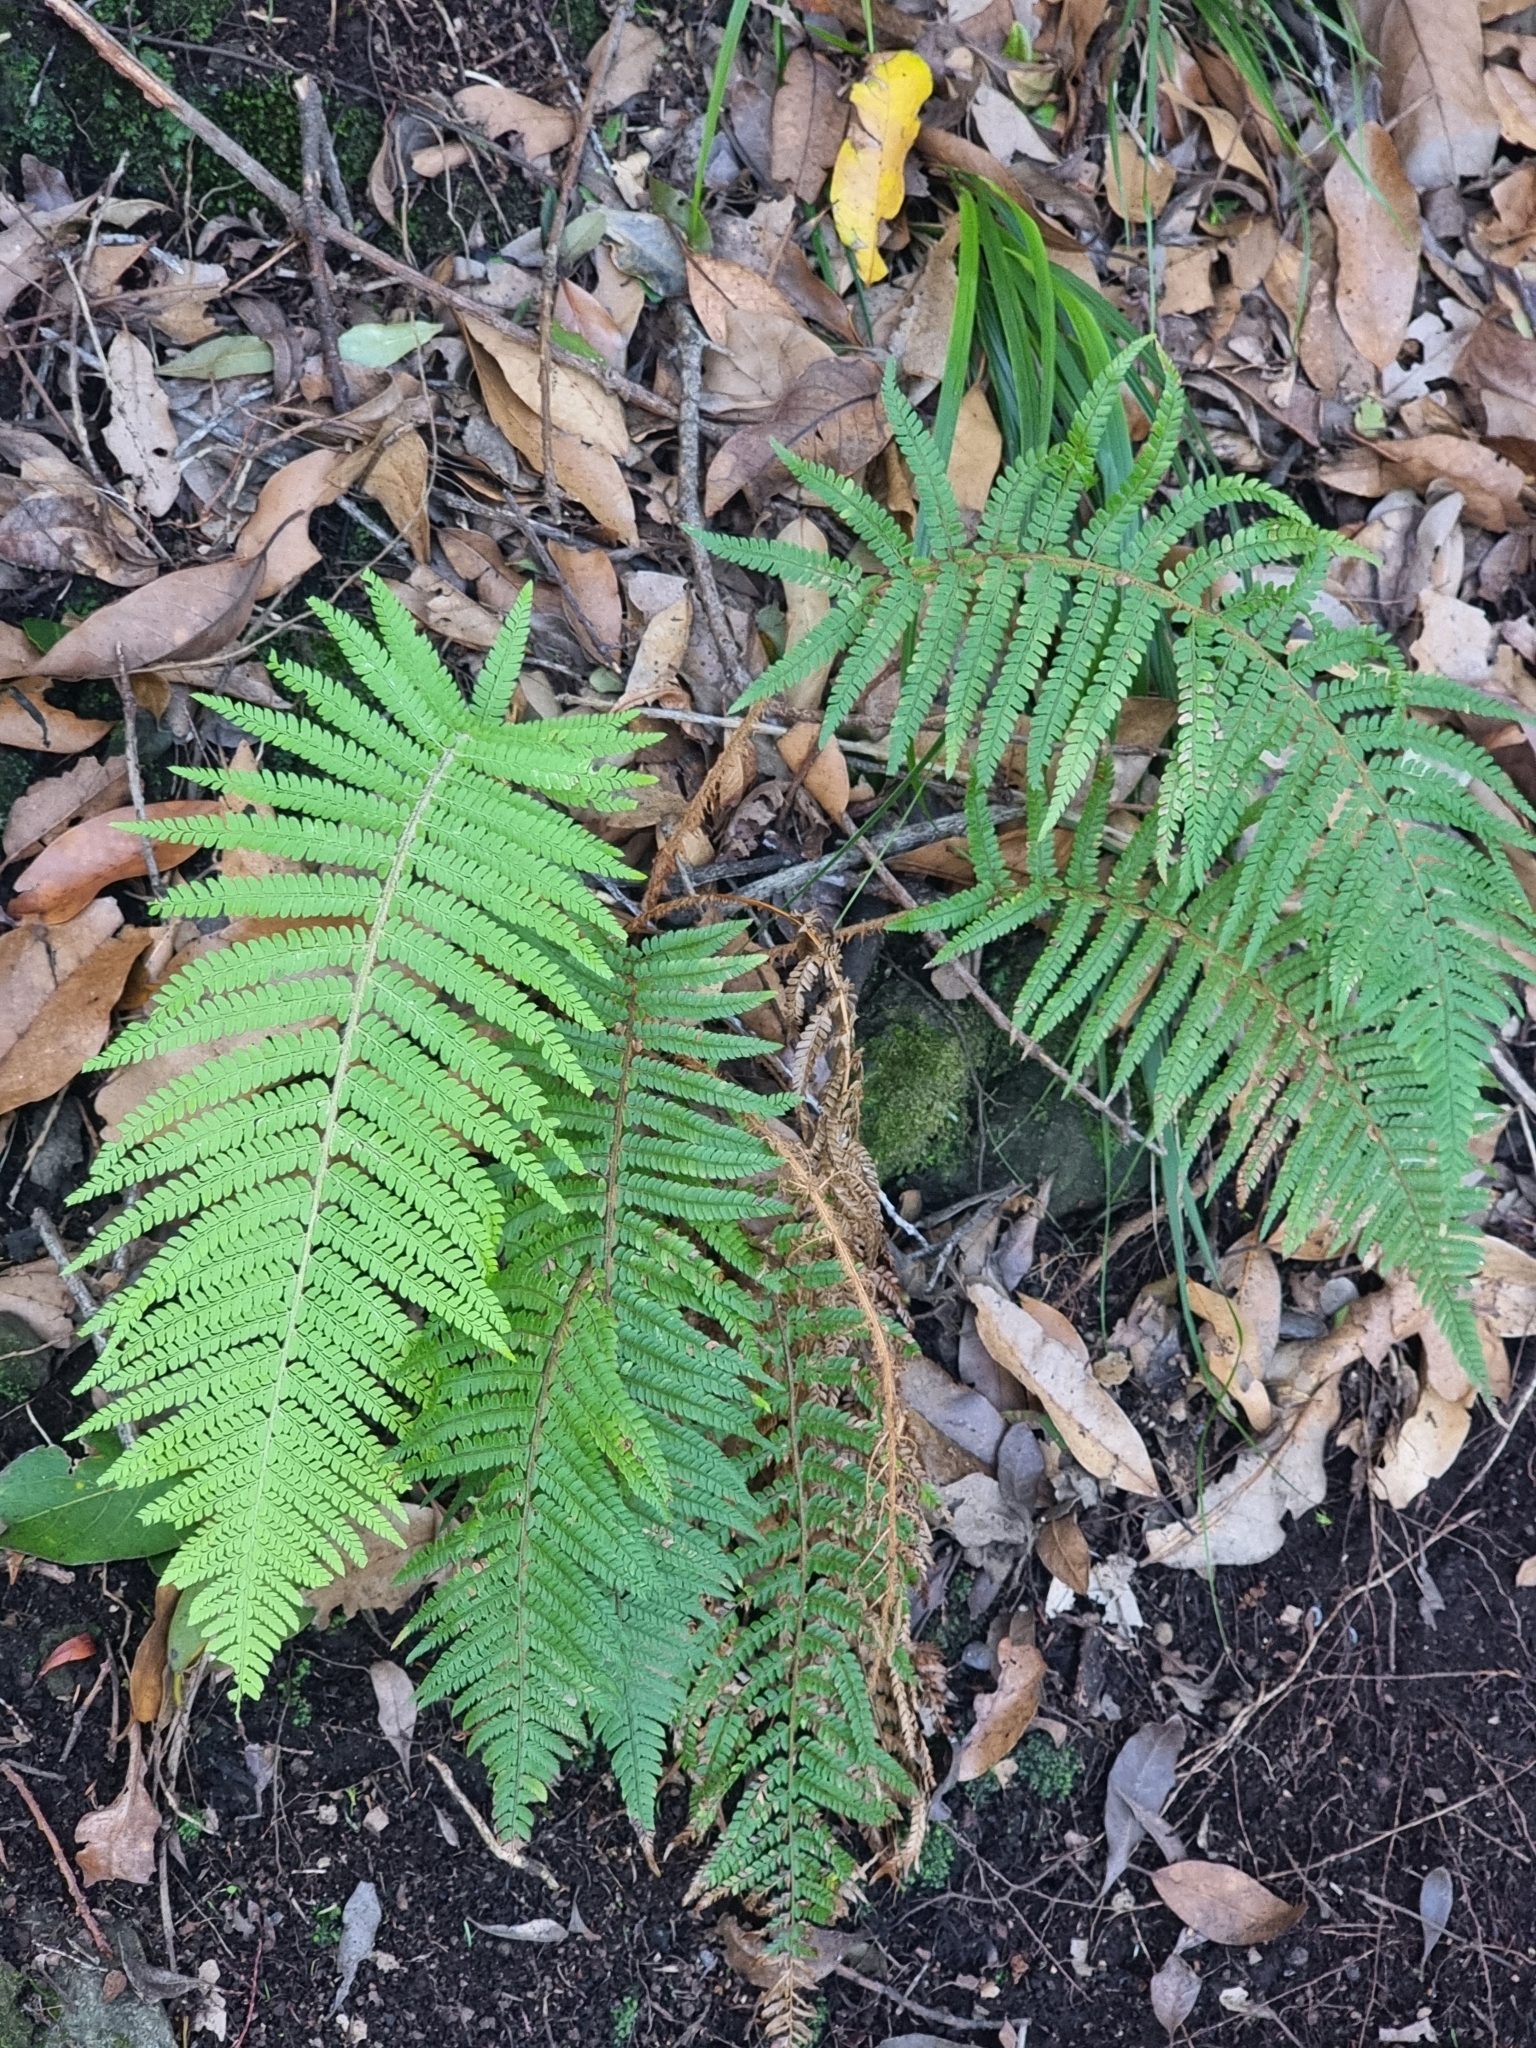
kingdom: Plantae
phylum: Tracheophyta
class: Polypodiopsida
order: Polypodiales
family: Dryopteridaceae
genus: Polystichum
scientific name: Polystichum setiferum
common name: Soft shield-fern
